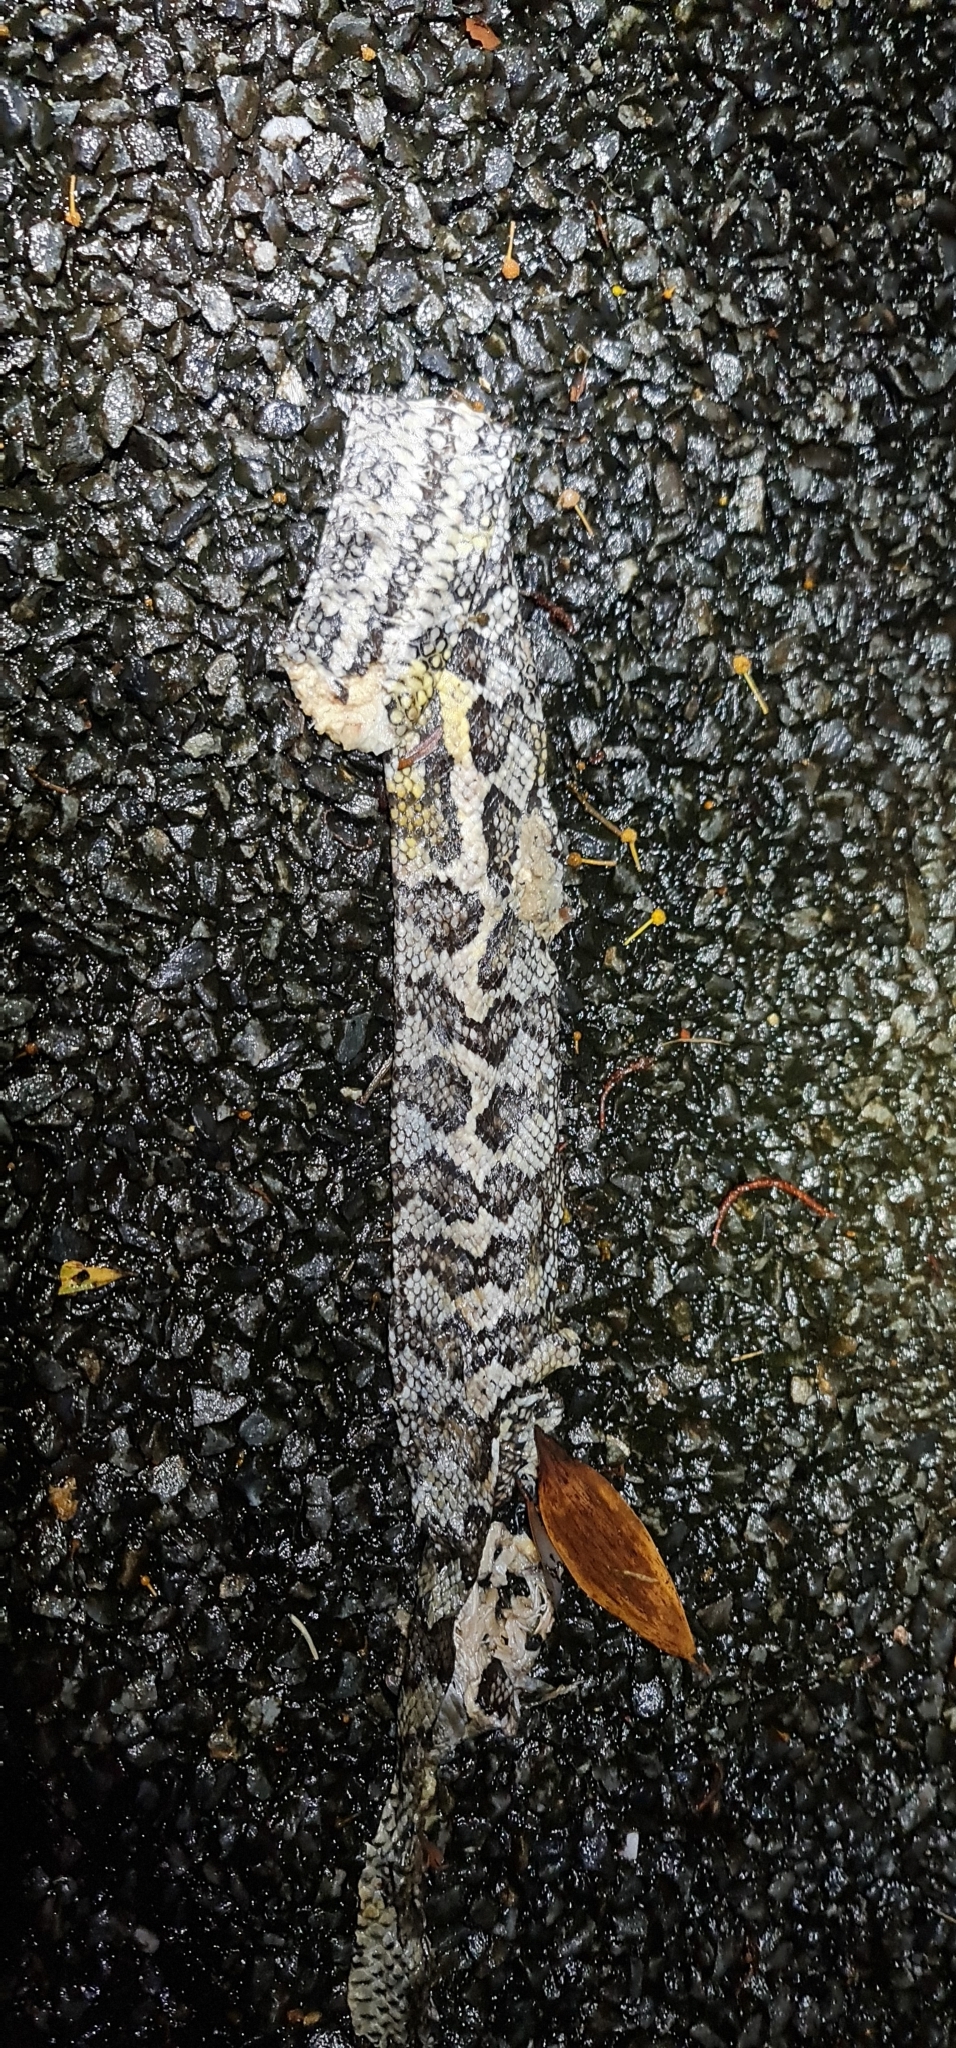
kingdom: Animalia
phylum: Chordata
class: Squamata
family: Pythonidae
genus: Morelia
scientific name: Morelia spilota
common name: Carpet python
